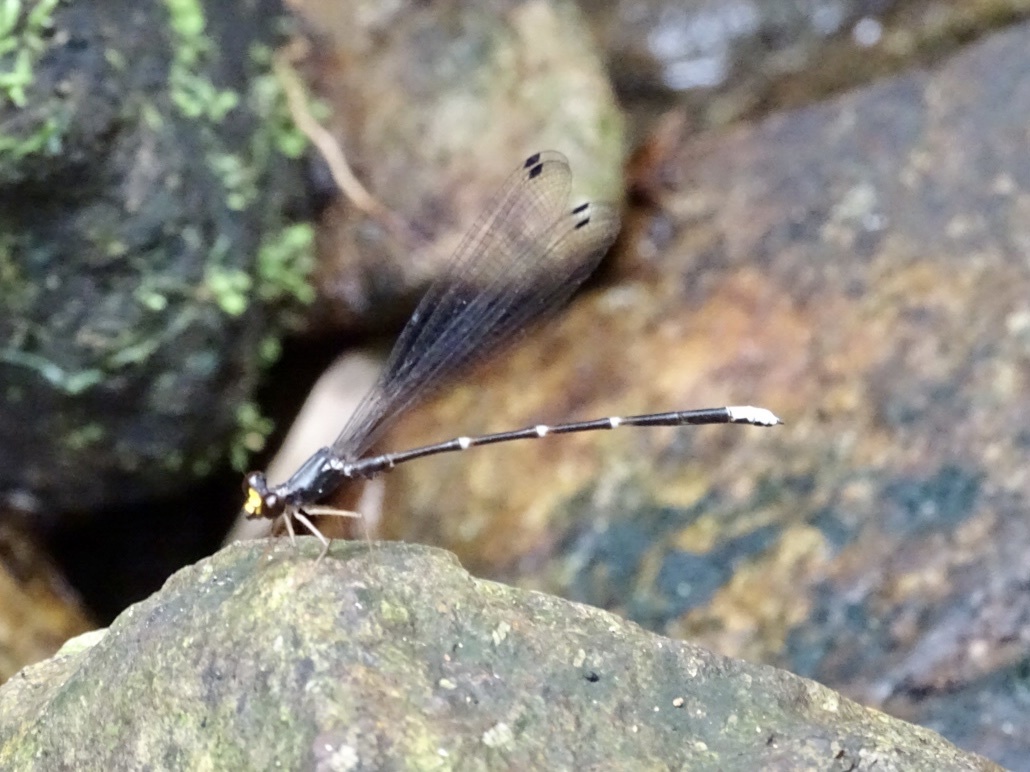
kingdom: Animalia
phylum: Arthropoda
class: Insecta
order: Odonata
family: Thaumatoneuridae
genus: Agriomorpha
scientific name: Agriomorpha fusca
